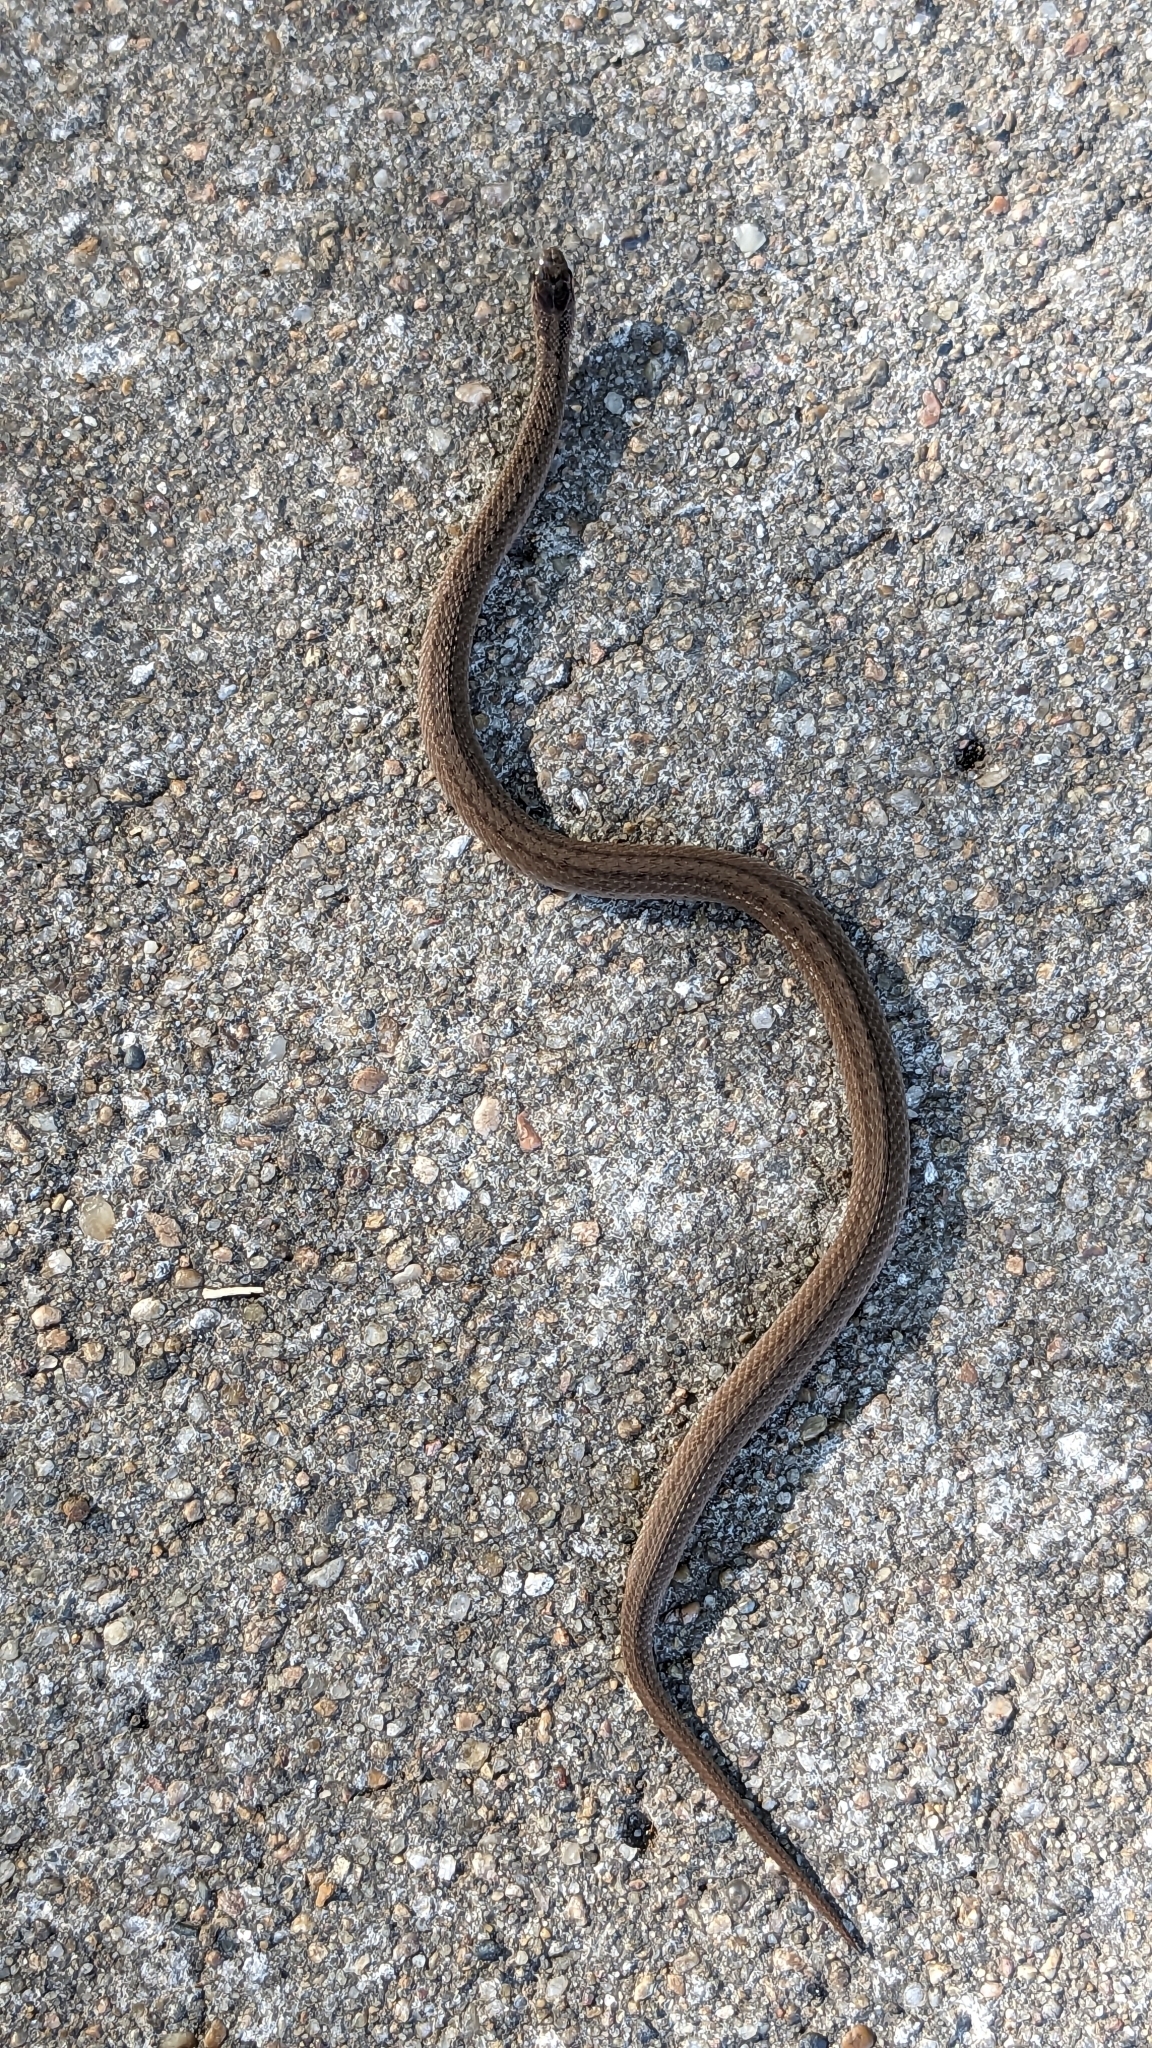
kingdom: Animalia
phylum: Chordata
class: Squamata
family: Colubridae
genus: Storeria
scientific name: Storeria dekayi
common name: (dekay’s) brown snake
